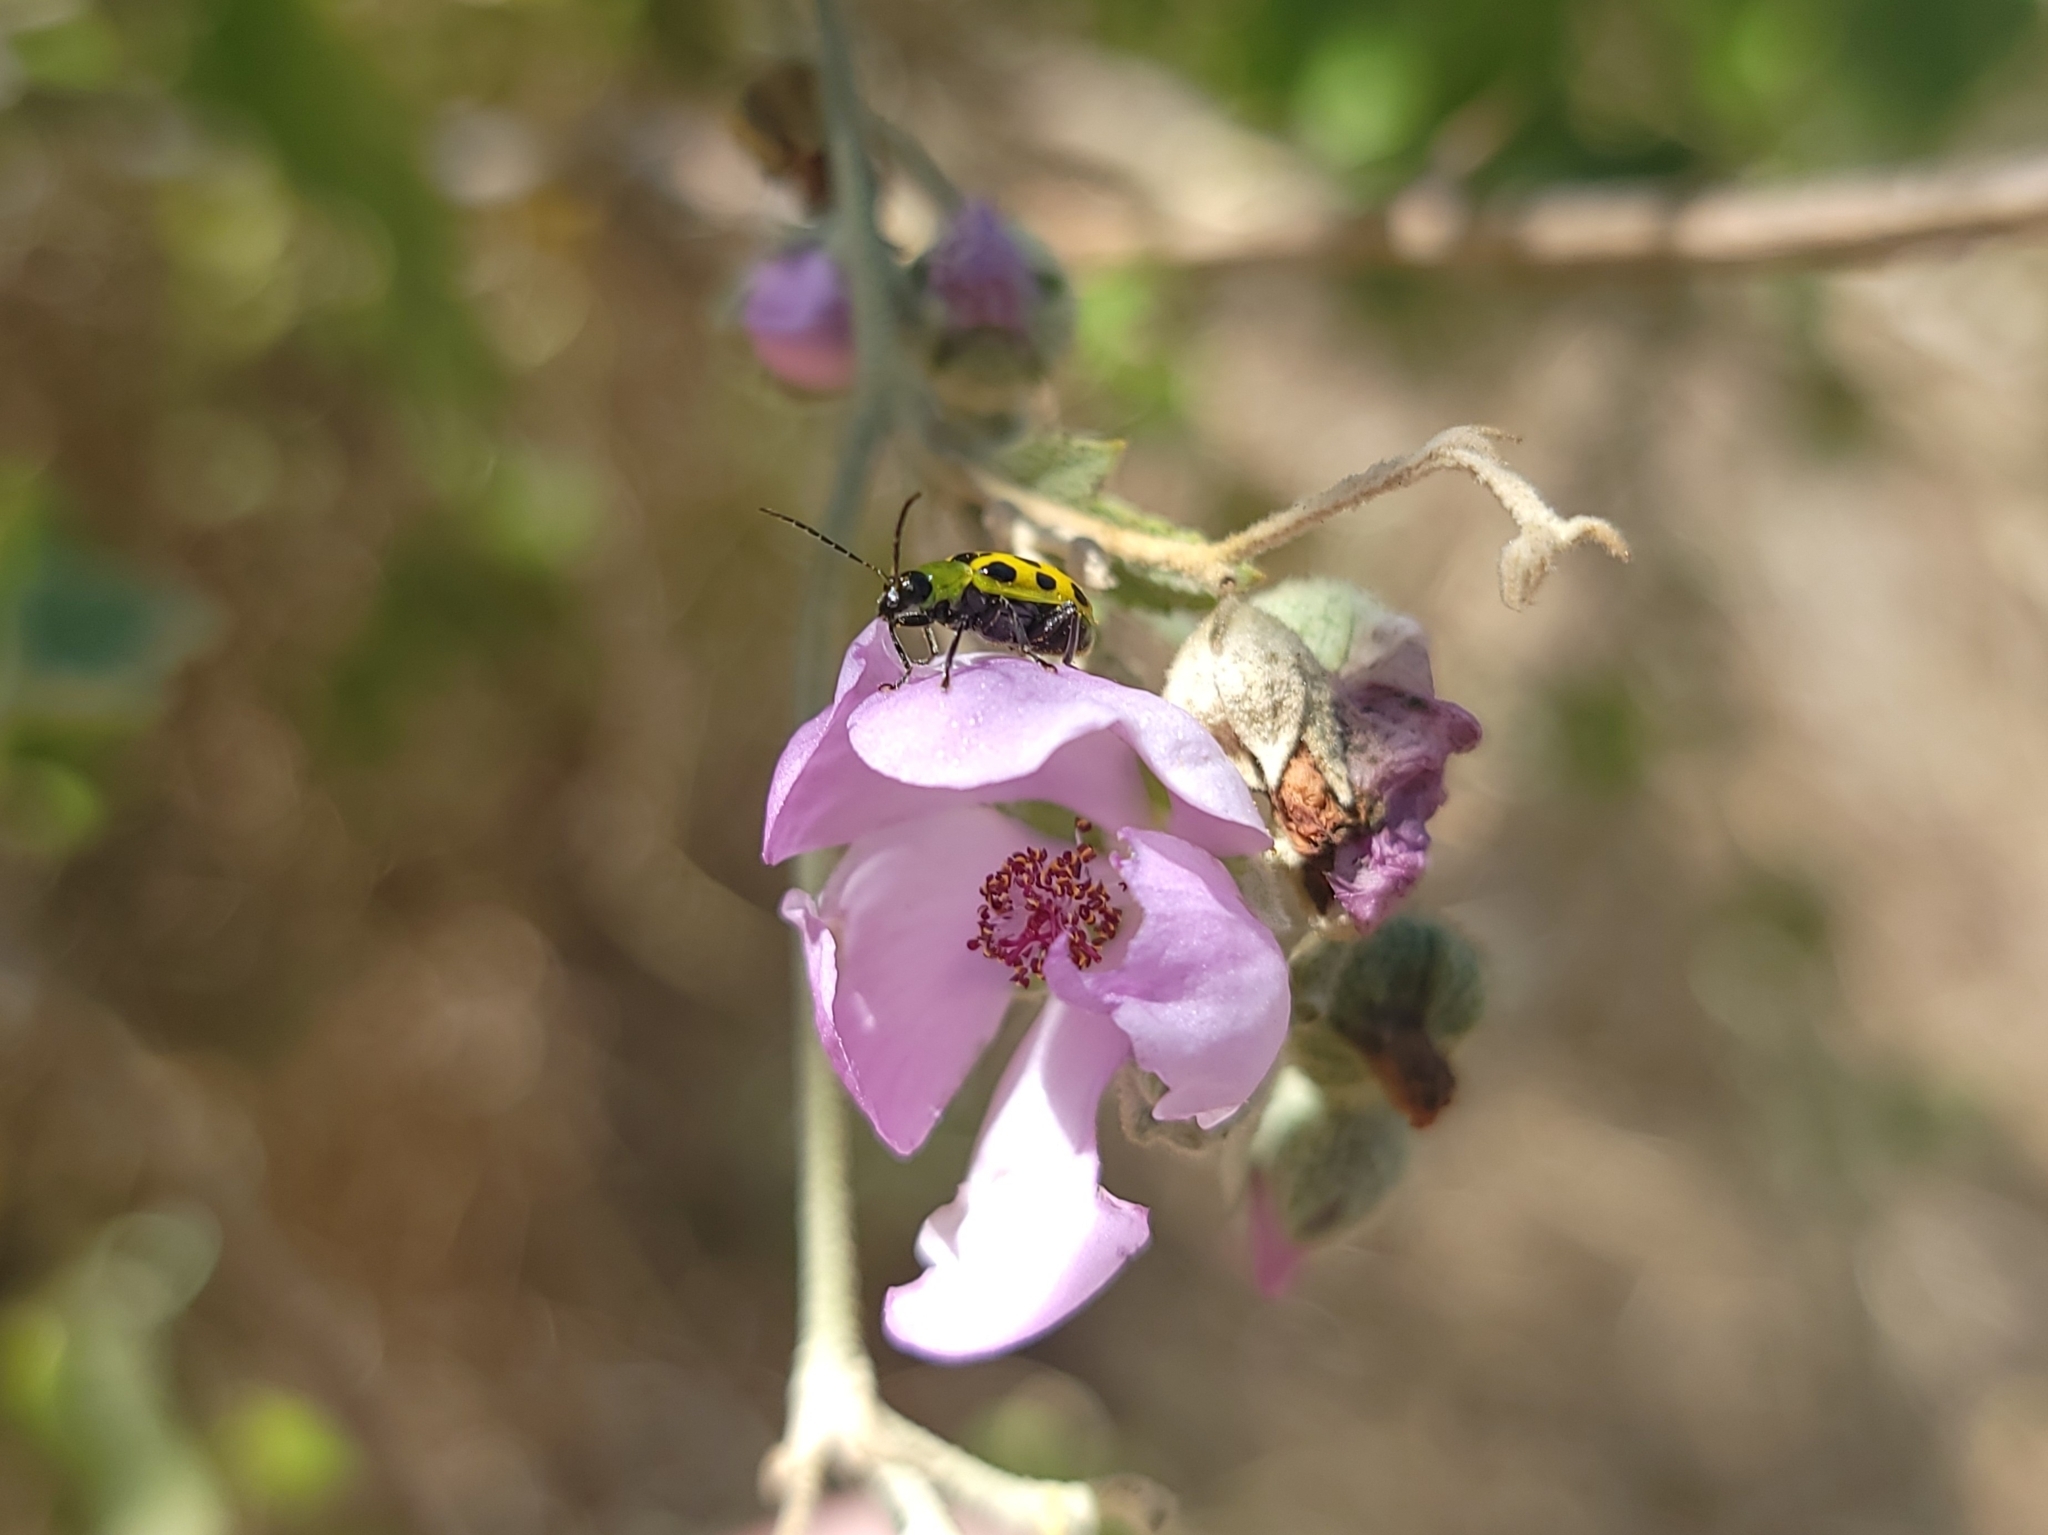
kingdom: Animalia
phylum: Arthropoda
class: Insecta
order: Coleoptera
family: Chrysomelidae
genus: Diabrotica
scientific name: Diabrotica undecimpunctata
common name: Spotted cucumber beetle
